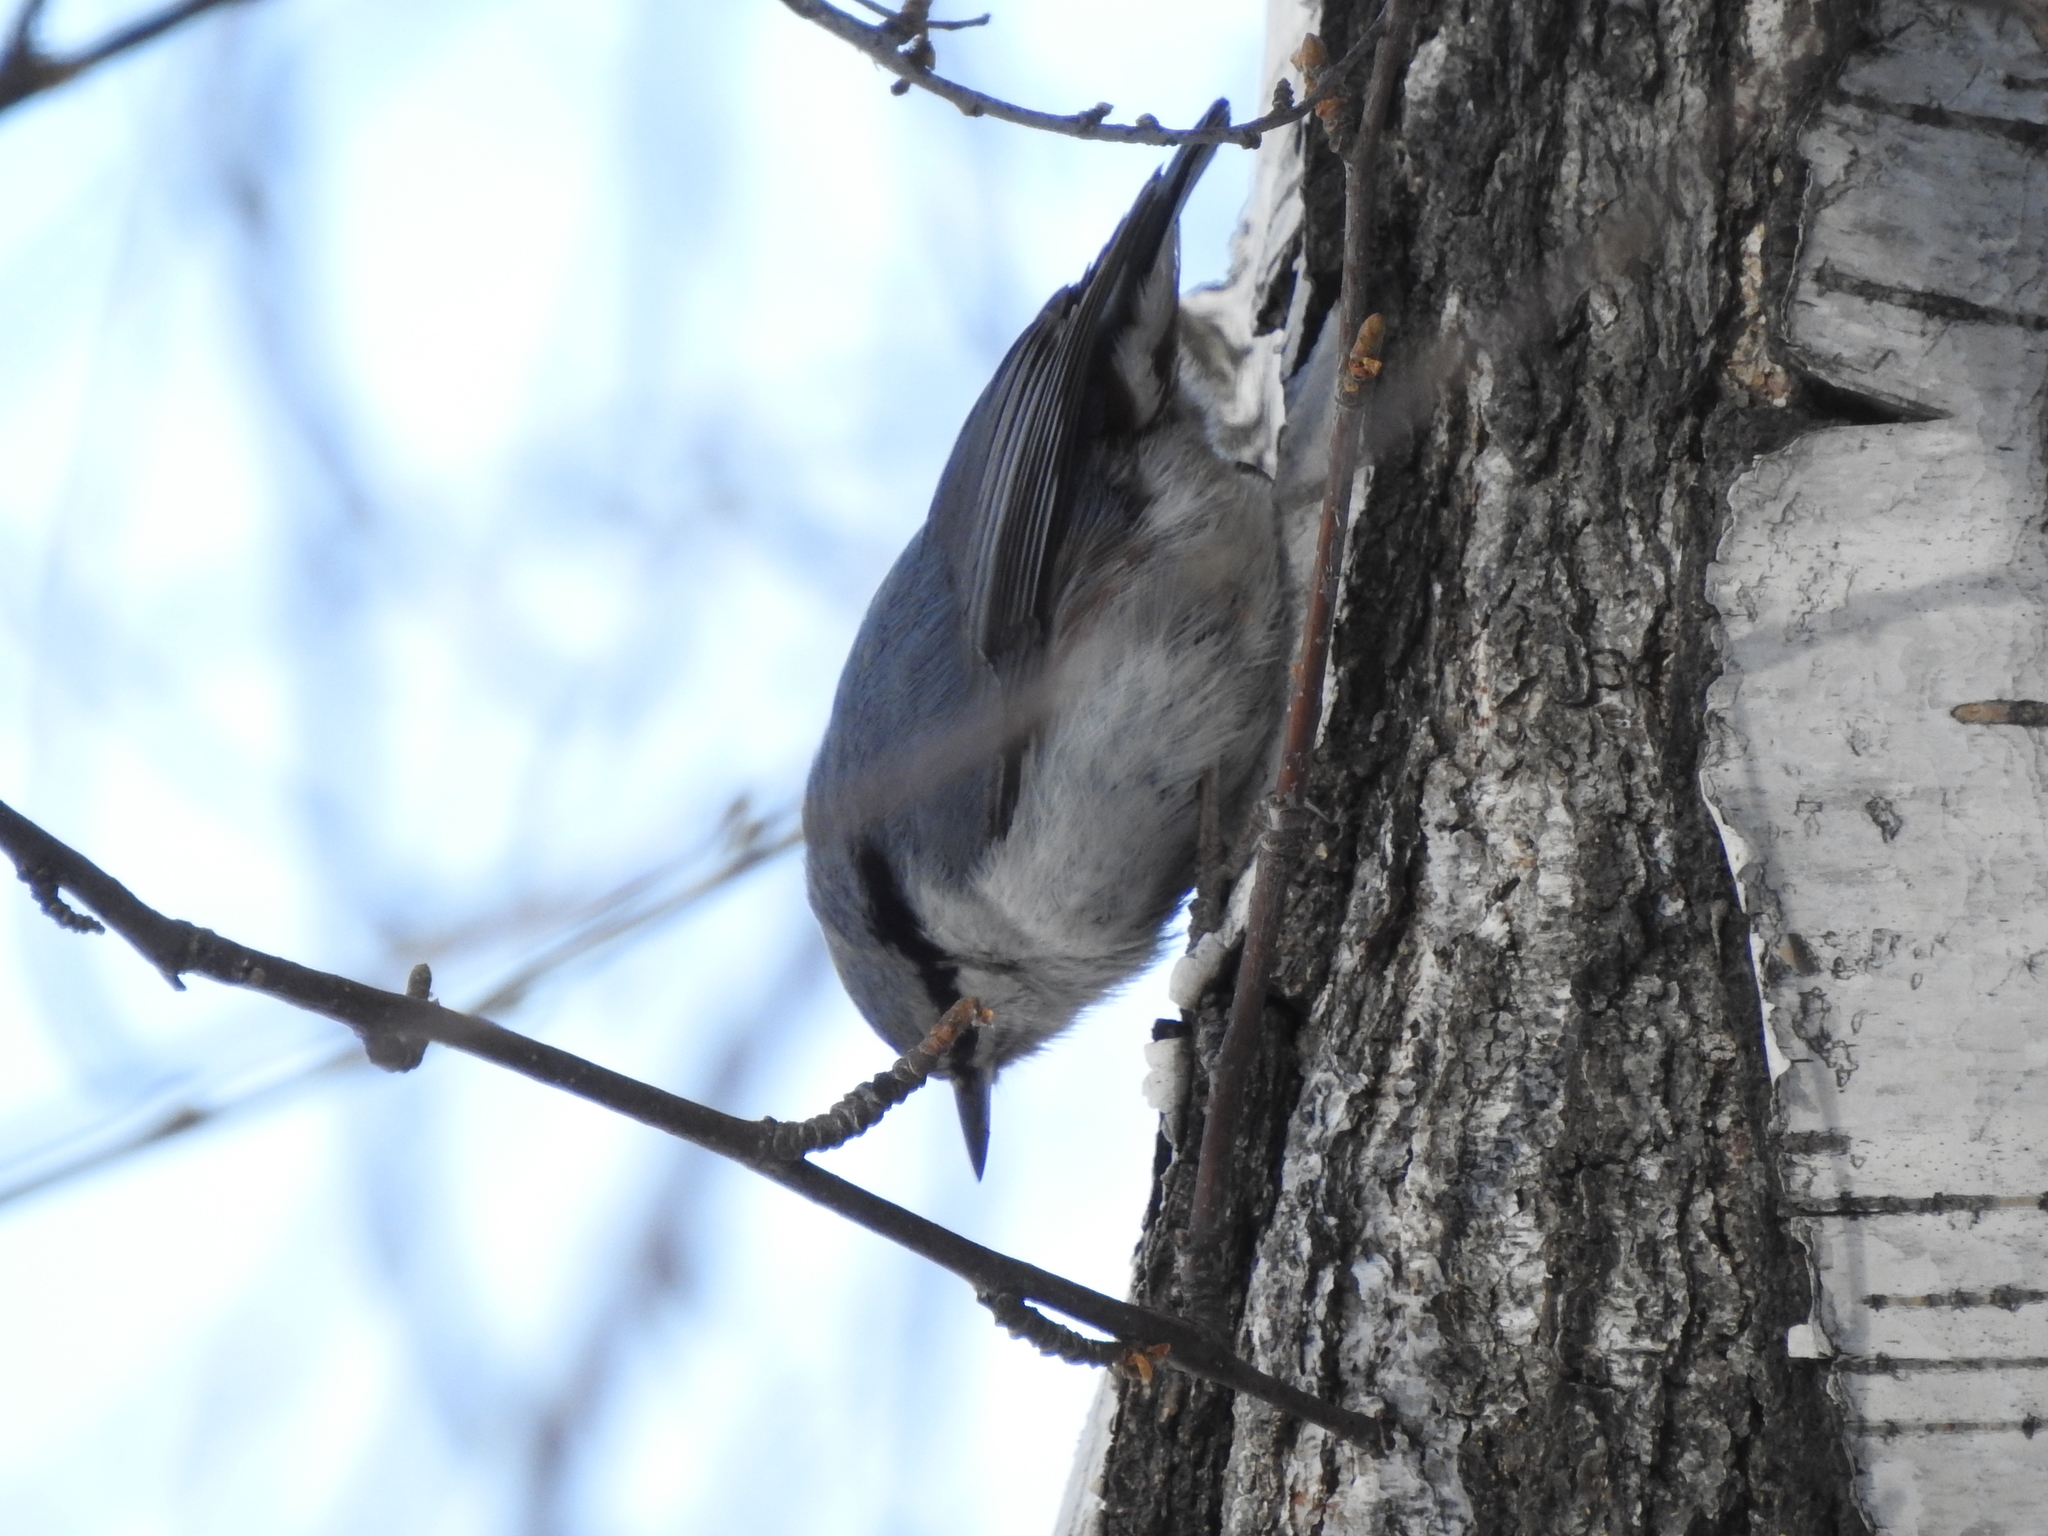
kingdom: Animalia
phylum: Chordata
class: Aves
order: Passeriformes
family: Sittidae
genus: Sitta
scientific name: Sitta europaea
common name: Eurasian nuthatch
